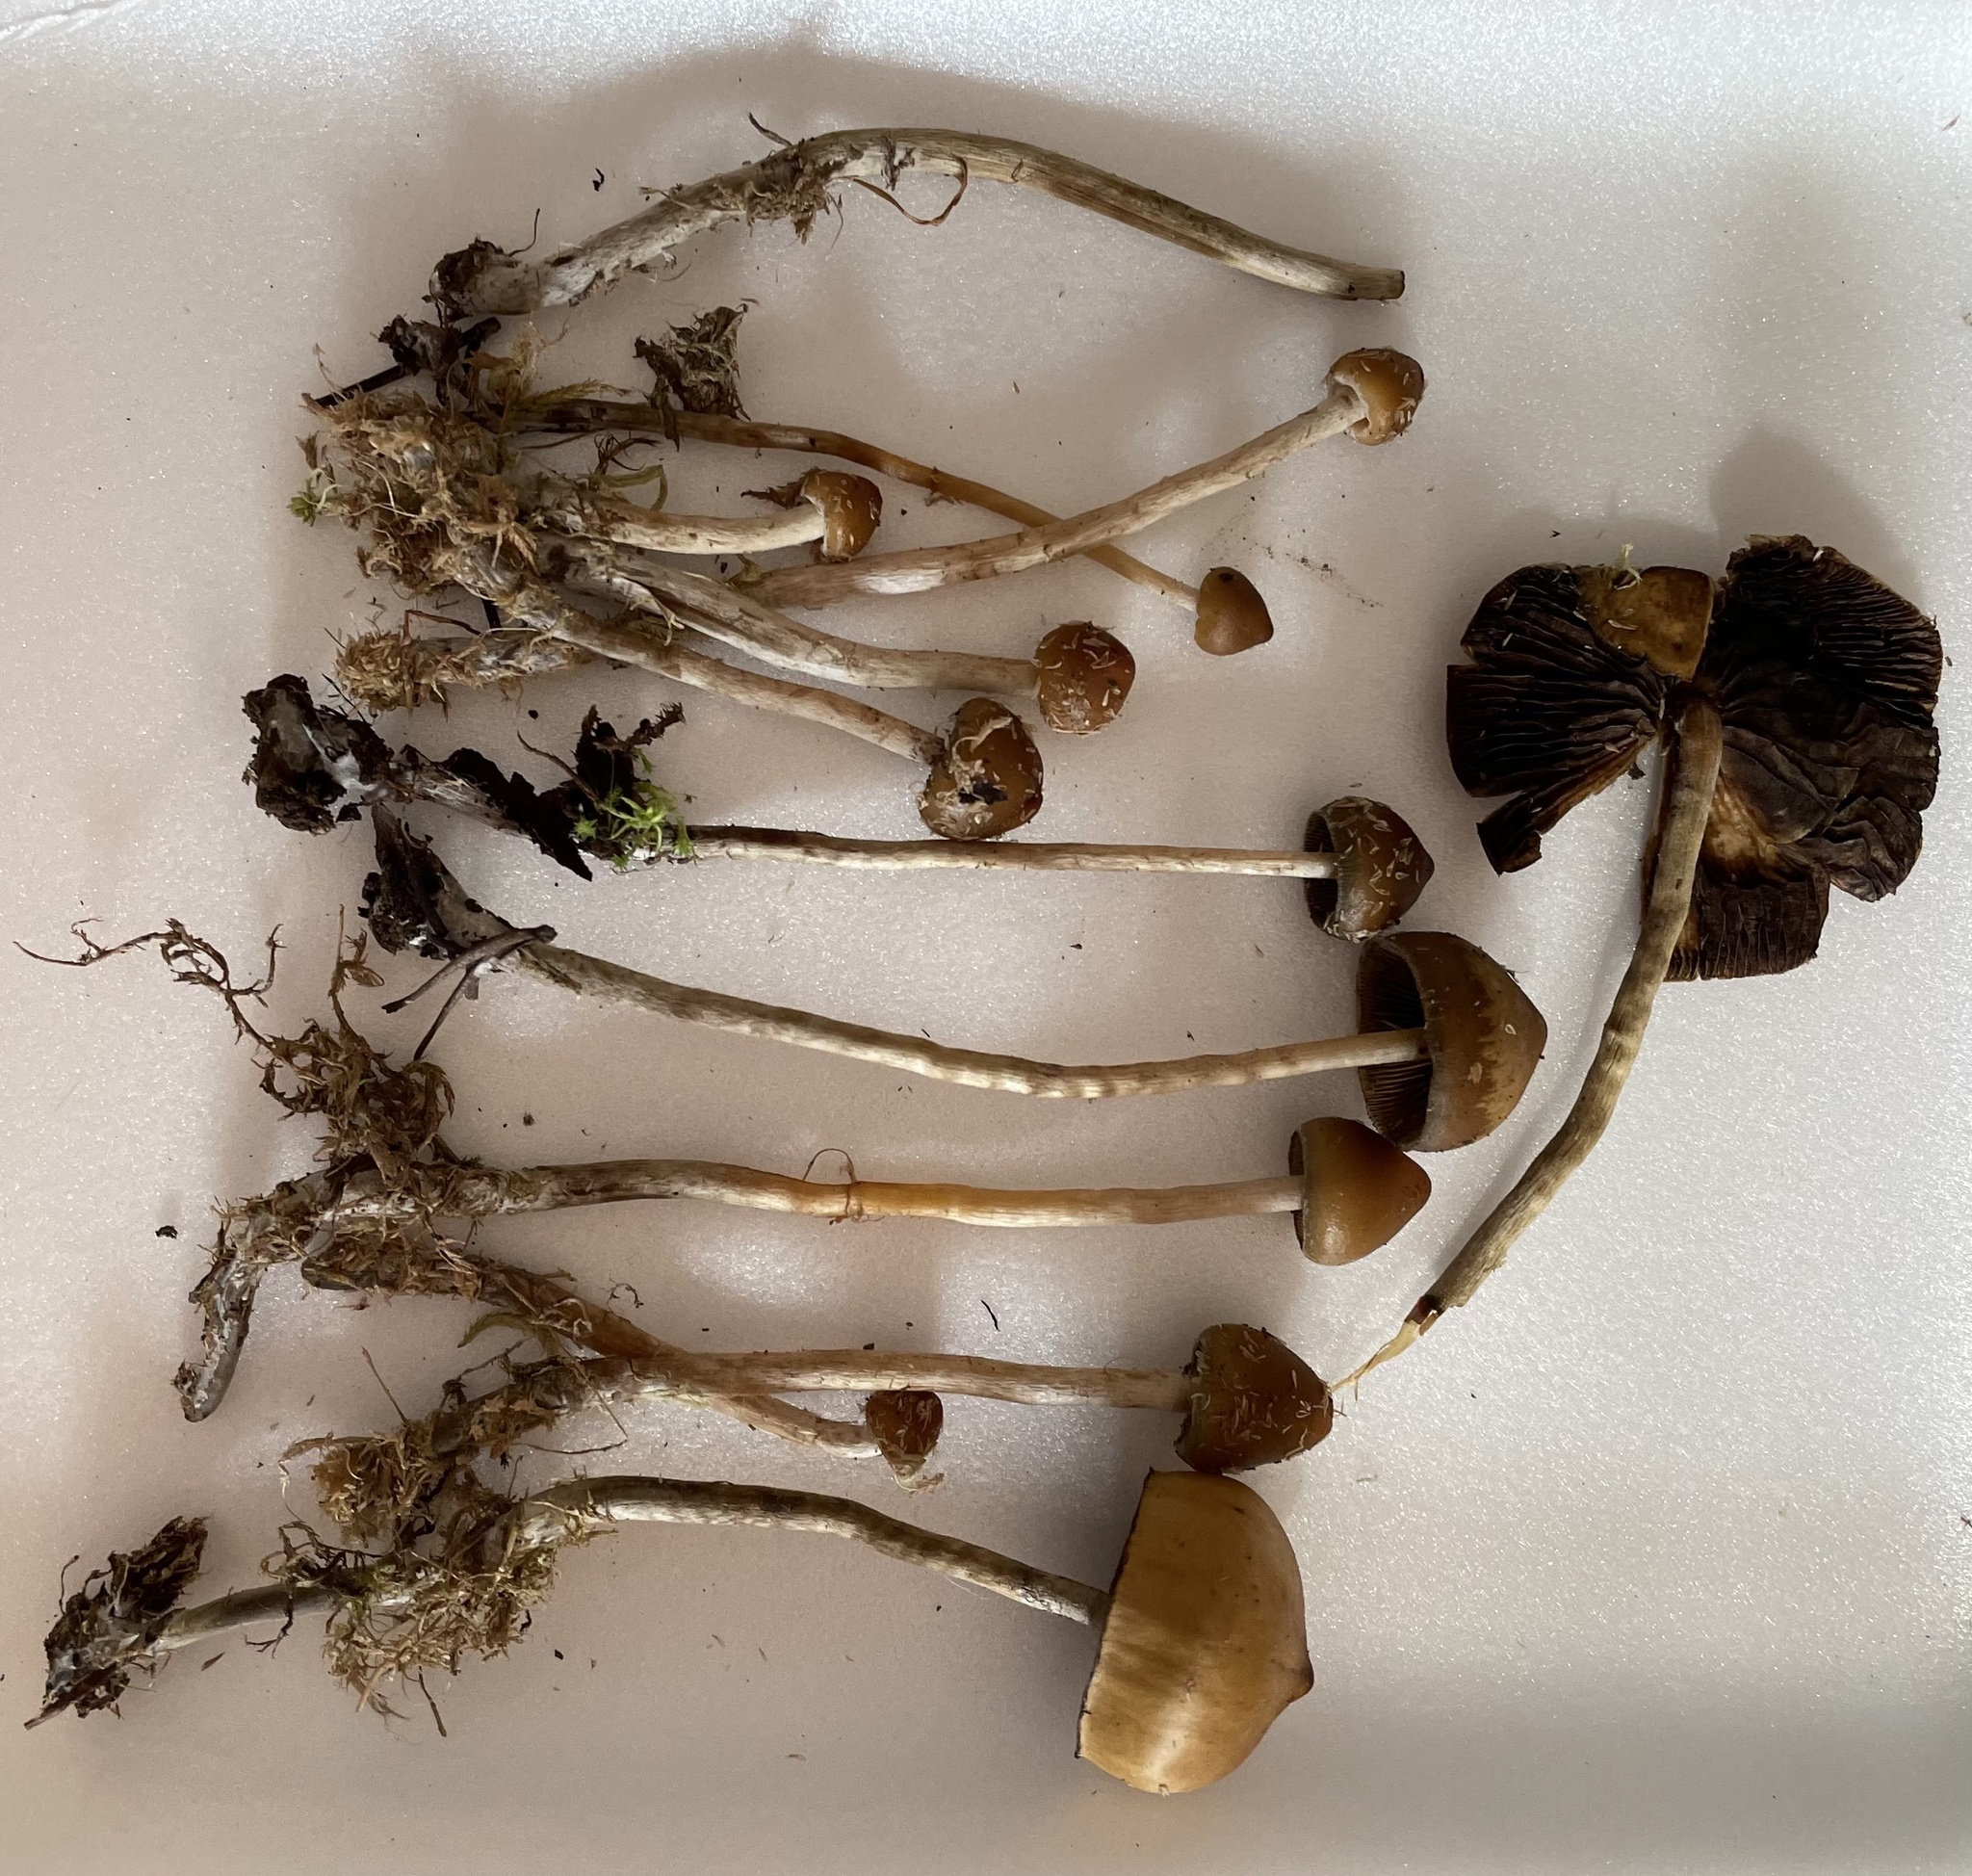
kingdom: Fungi
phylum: Basidiomycota
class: Agaricomycetes
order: Agaricales
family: Hymenogastraceae
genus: Psilocybe
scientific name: Psilocybe fuscofulva
